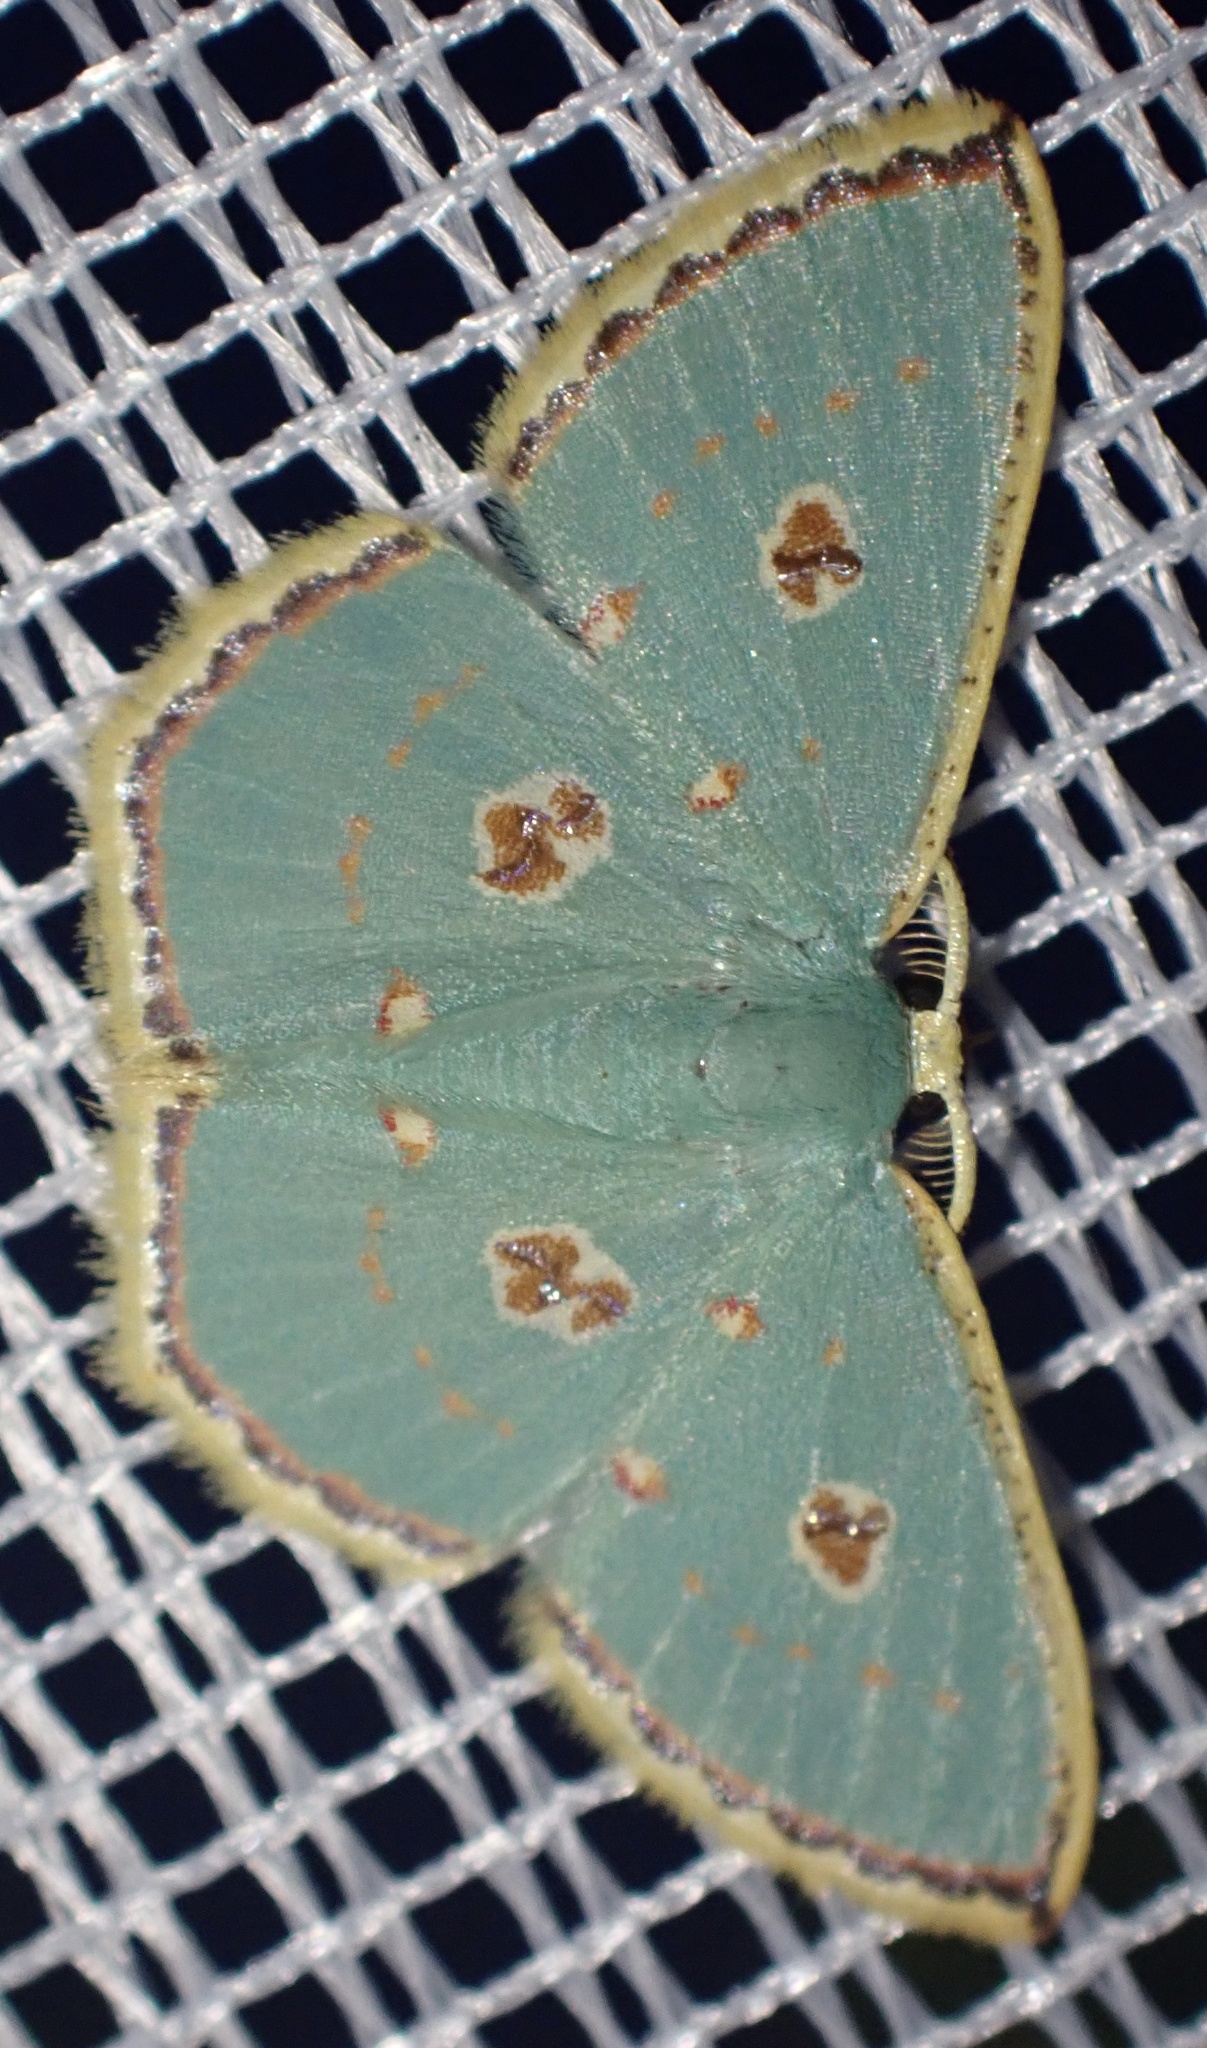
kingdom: Animalia
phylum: Arthropoda
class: Insecta
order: Lepidoptera
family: Geometridae
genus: Comostola
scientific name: Comostola nereidaria
